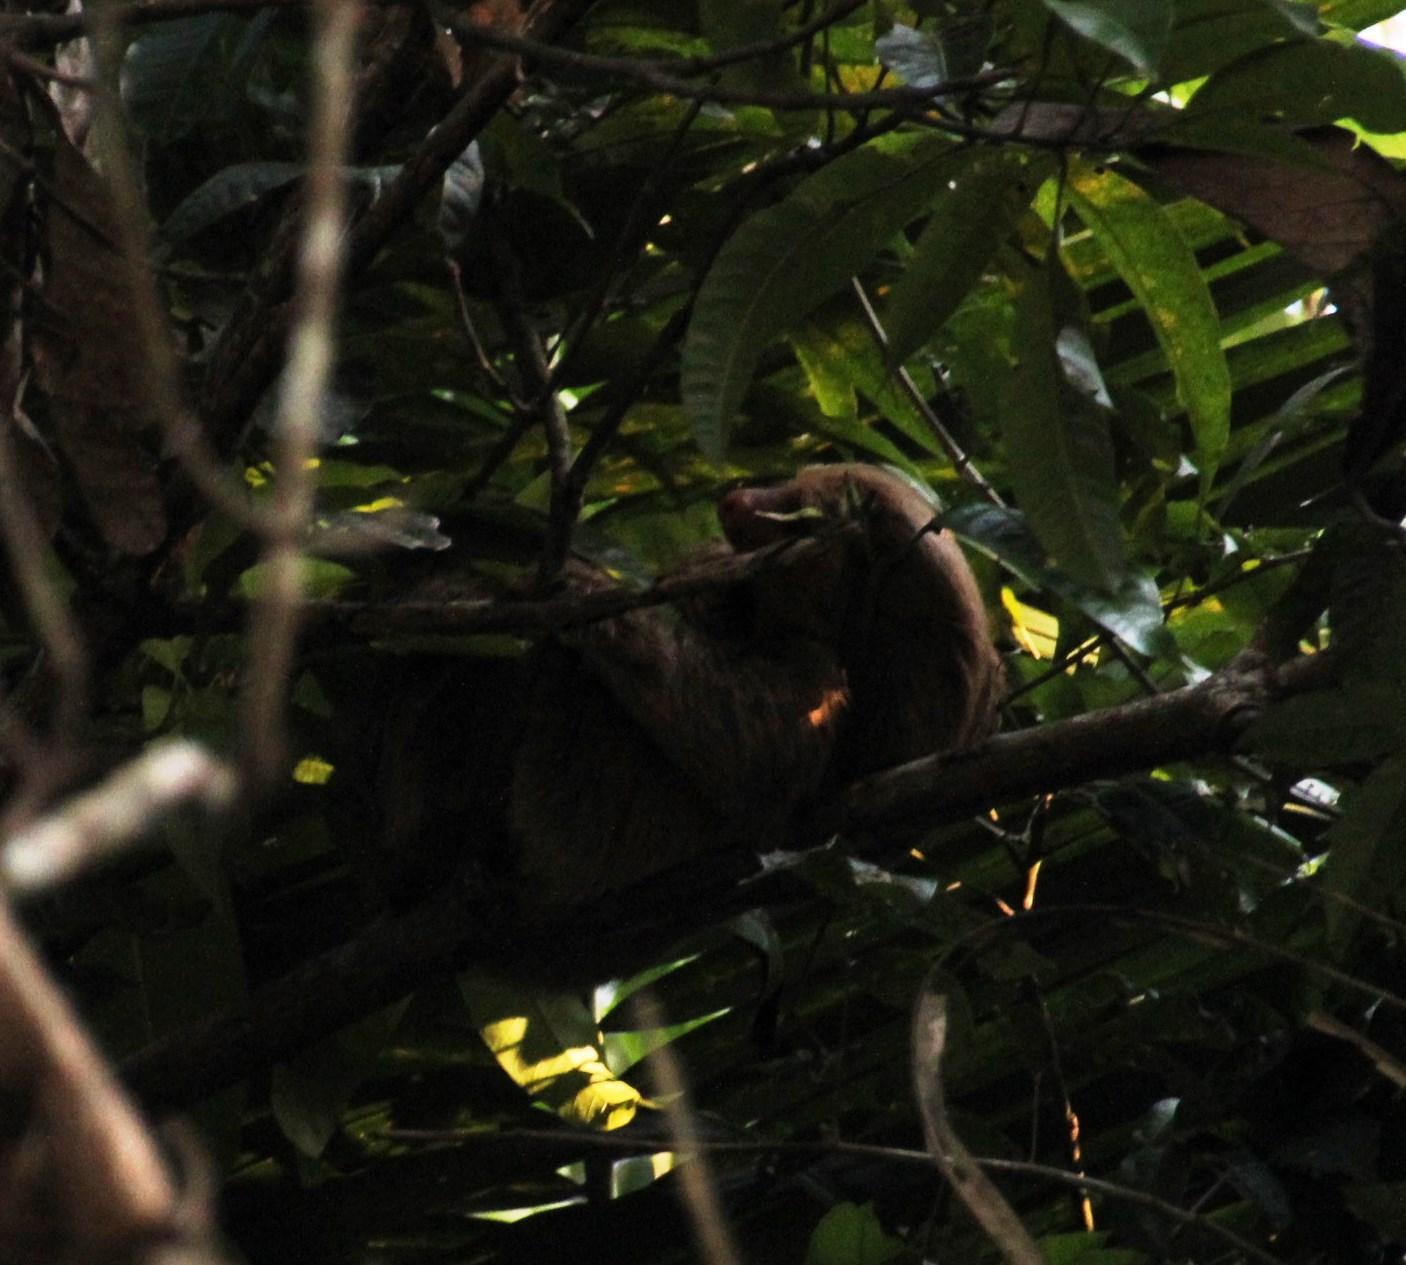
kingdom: Animalia
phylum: Chordata
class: Mammalia
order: Pilosa
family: Megalonychidae
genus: Choloepus
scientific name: Choloepus hoffmanni
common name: Hoffmann's two-toed sloth
